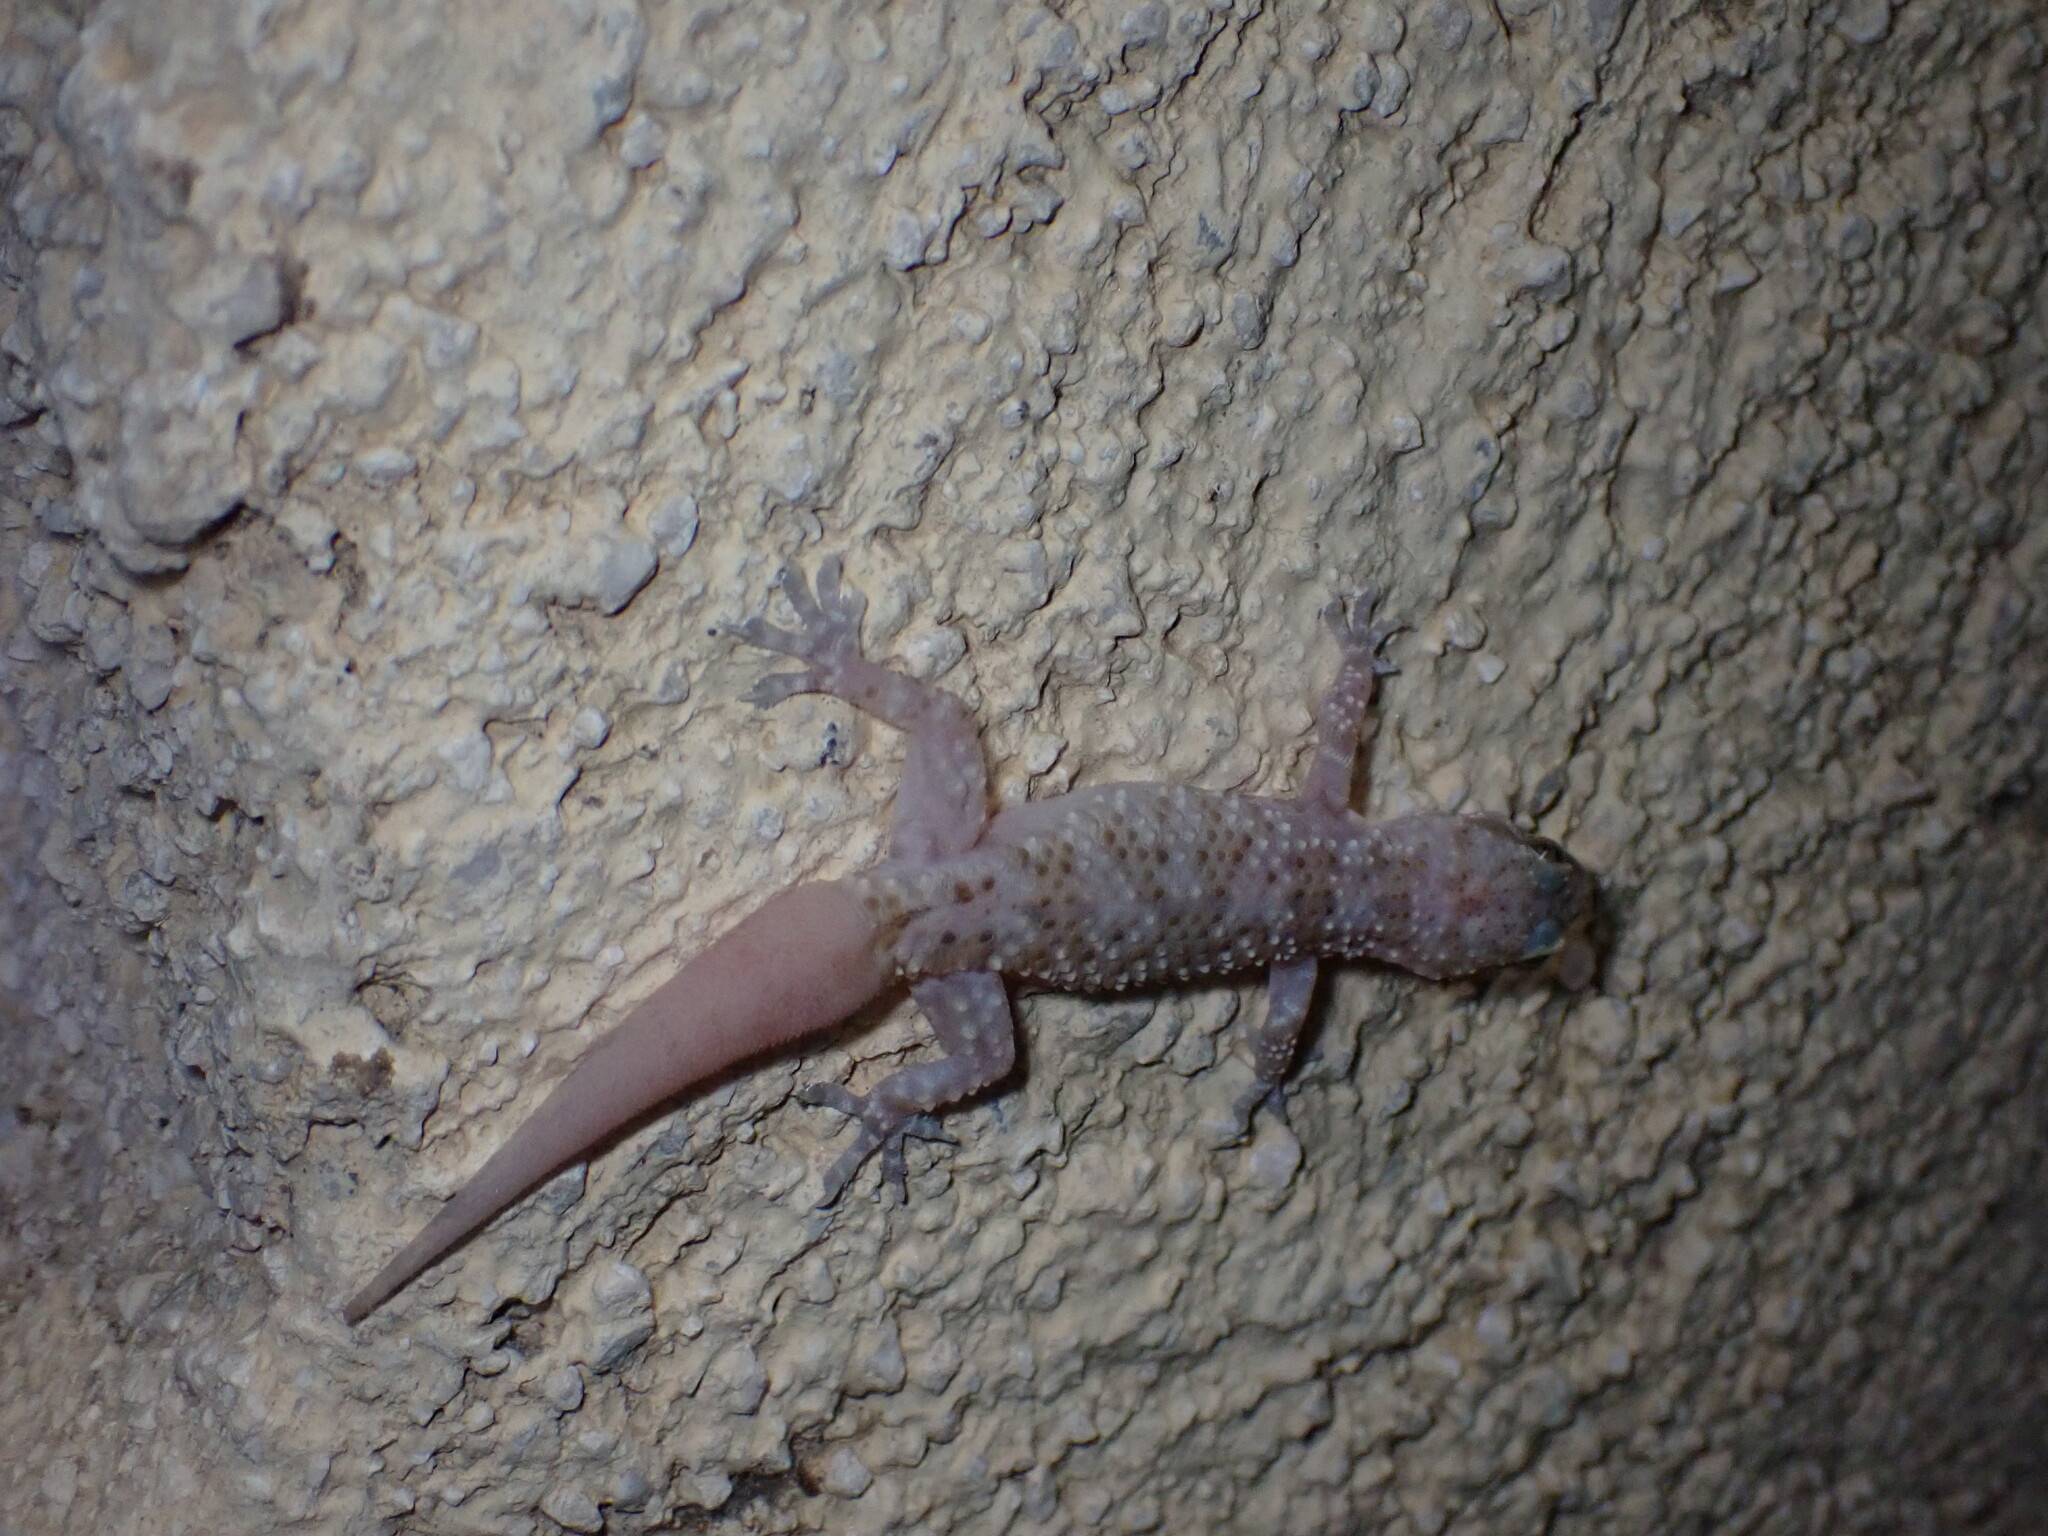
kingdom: Animalia
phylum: Chordata
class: Squamata
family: Gekkonidae
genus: Hemidactylus
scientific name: Hemidactylus turcicus
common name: Turkish gecko
